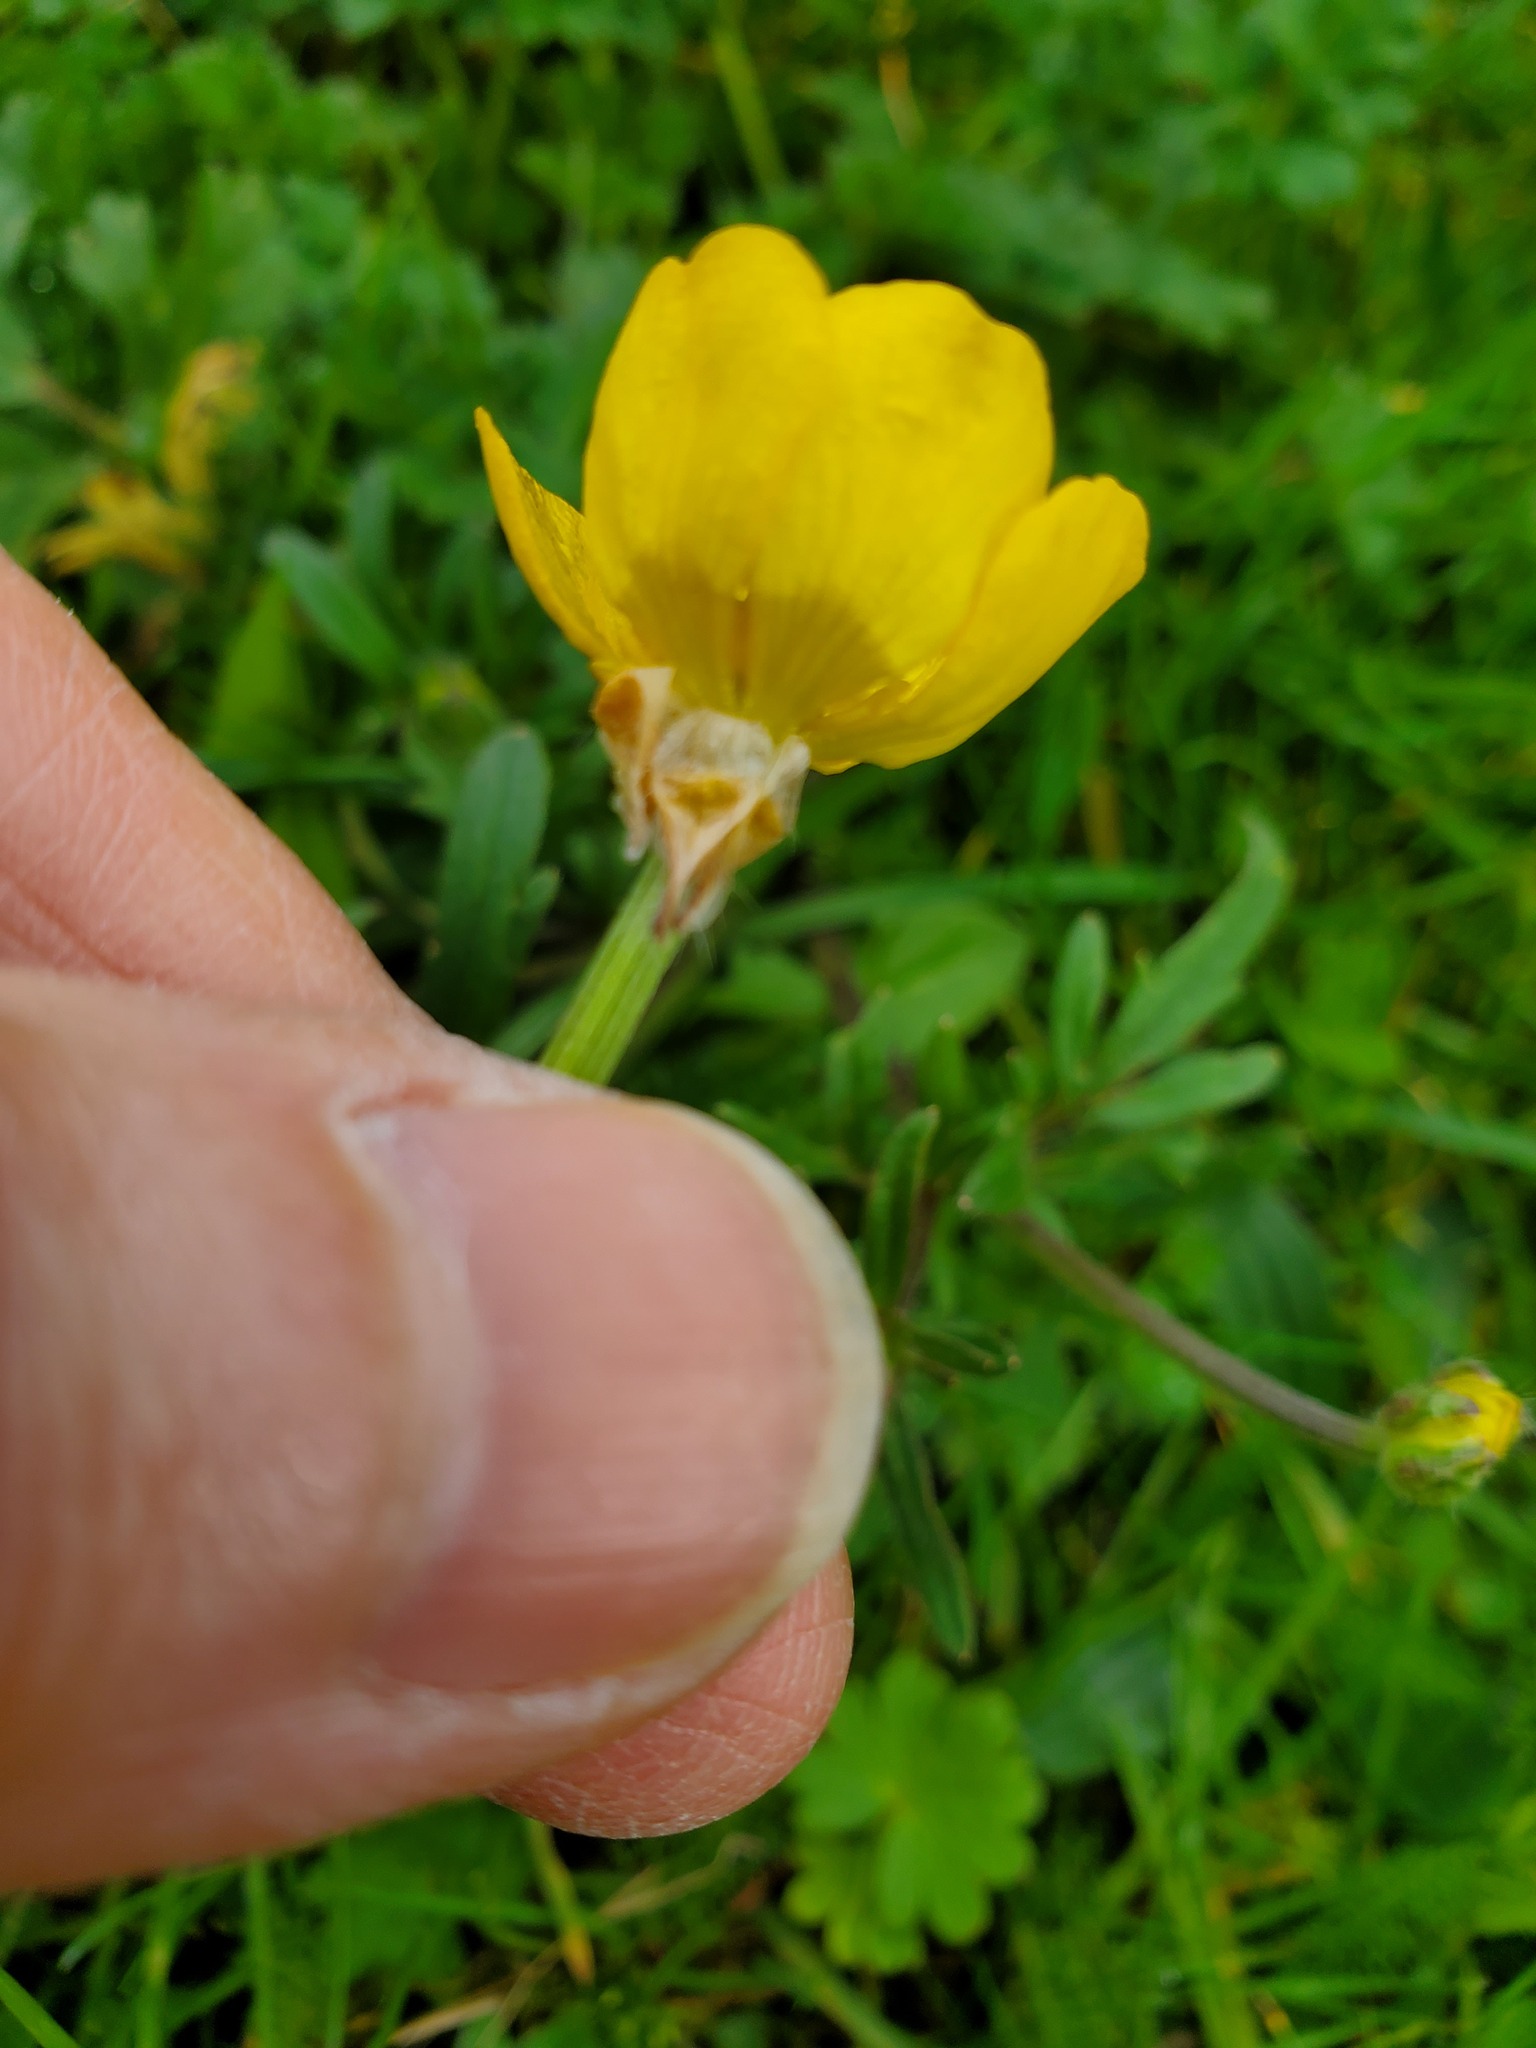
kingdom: Plantae
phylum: Tracheophyta
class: Magnoliopsida
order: Ranunculales
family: Ranunculaceae
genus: Ranunculus
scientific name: Ranunculus bulbosus
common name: Bulbous buttercup
